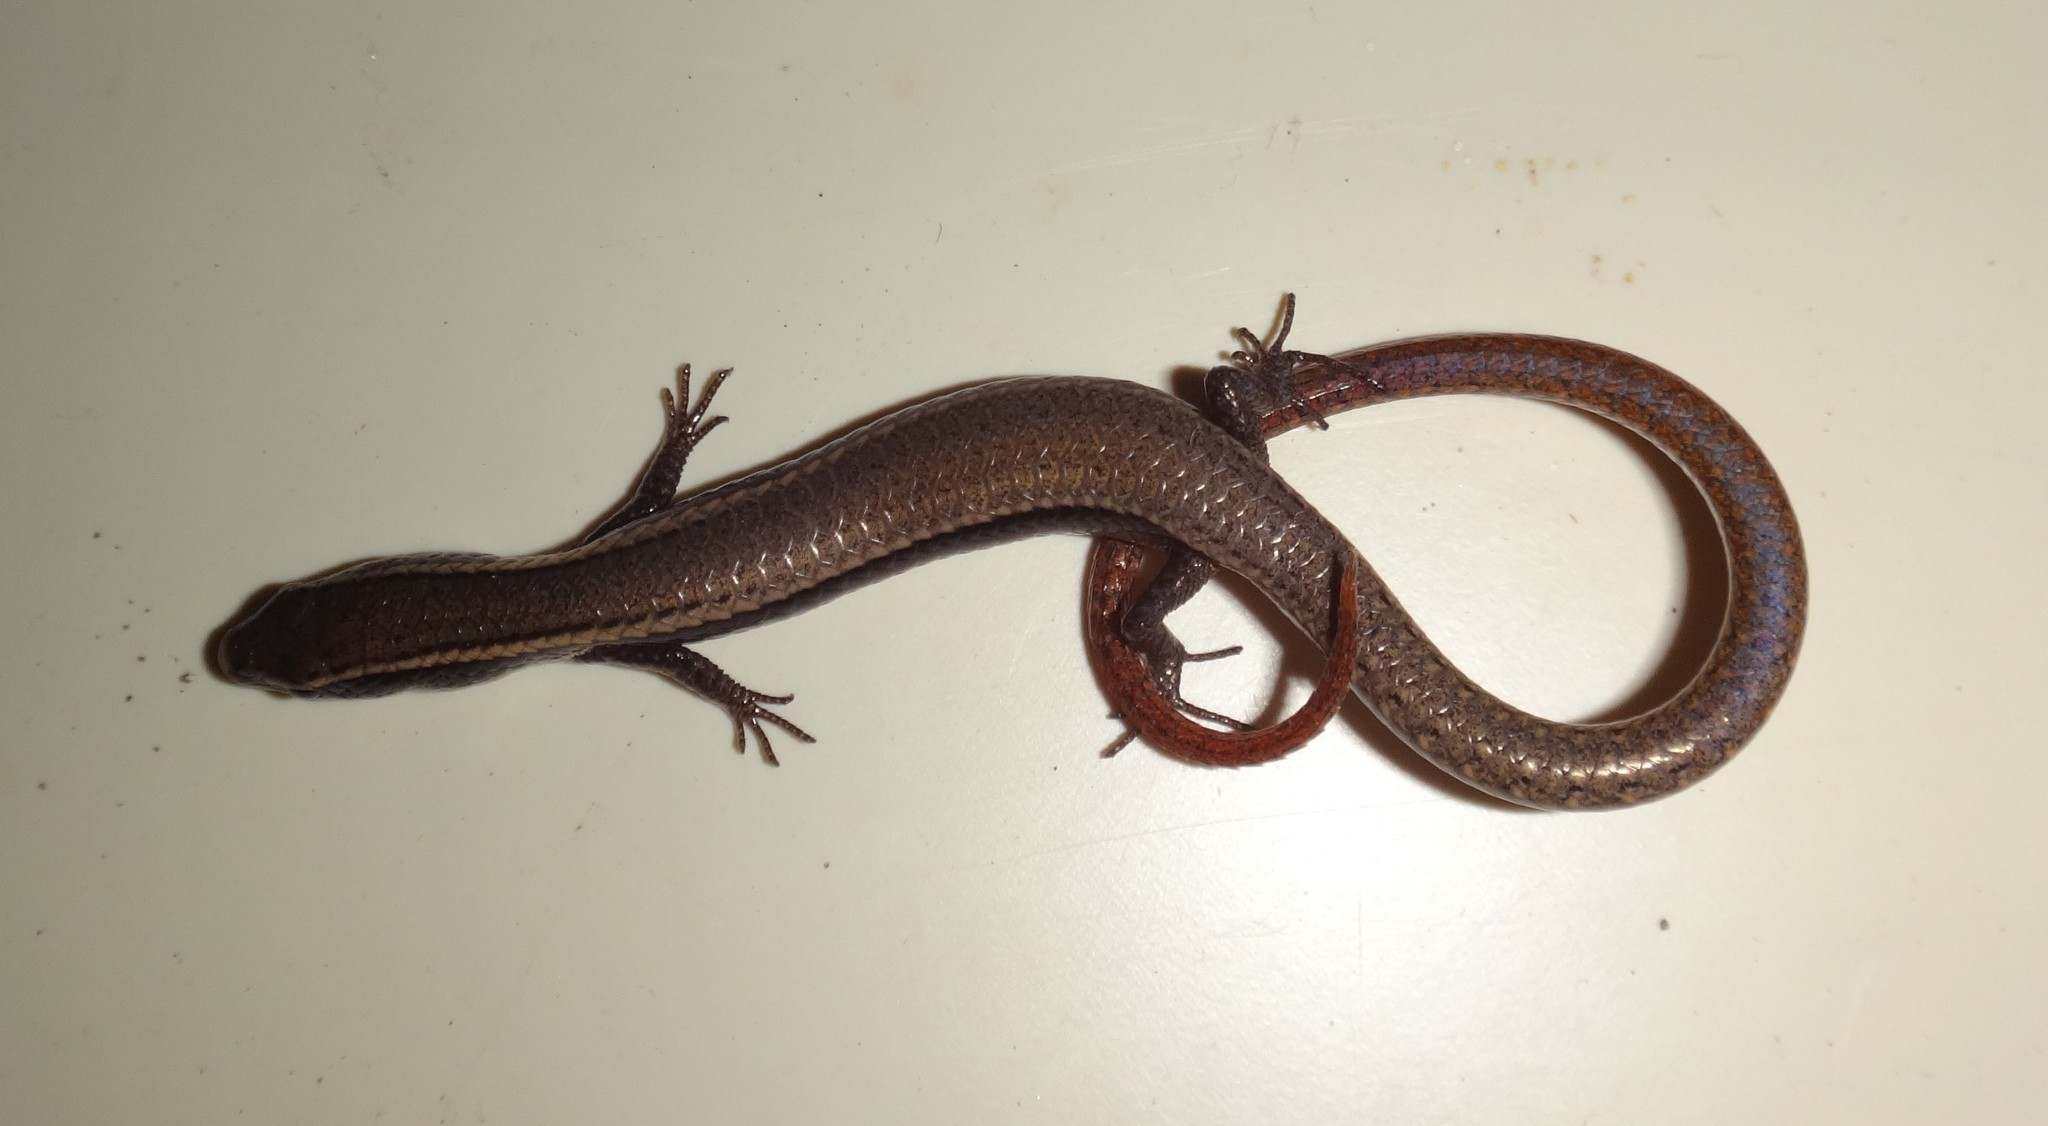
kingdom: Animalia
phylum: Chordata
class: Squamata
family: Gymnophthalmidae
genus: Gymnophthalmus
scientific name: Gymnophthalmus
